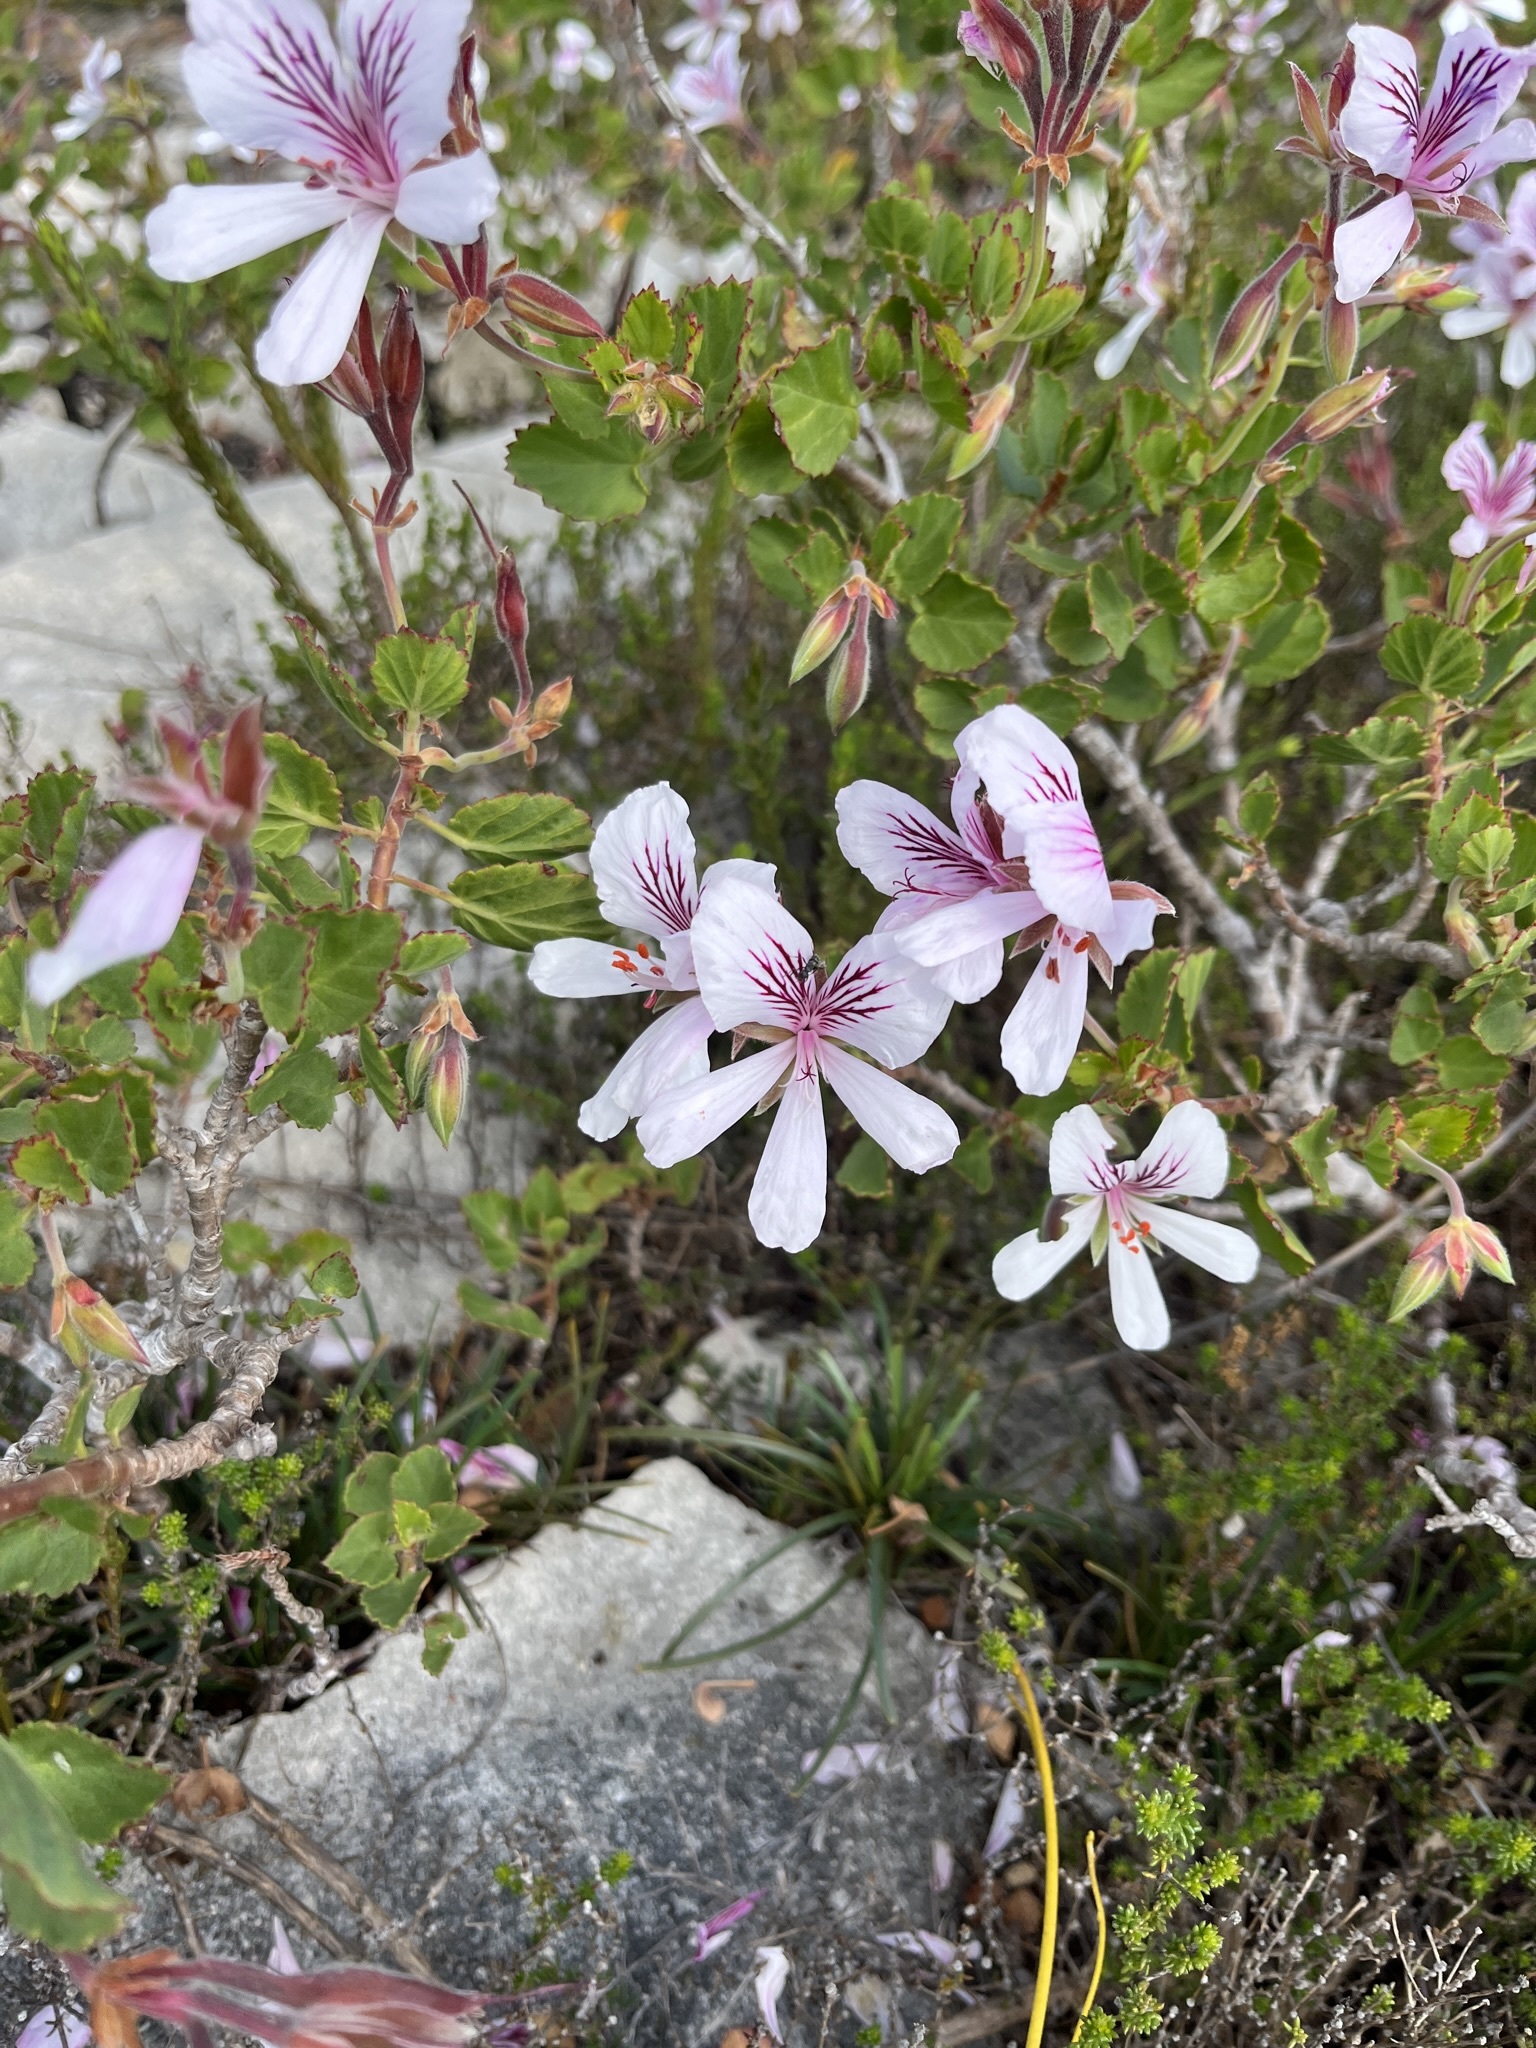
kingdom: Plantae
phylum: Tracheophyta
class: Magnoliopsida
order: Geraniales
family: Geraniaceae
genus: Pelargonium
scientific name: Pelargonium betulinum
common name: Birch-leaf pelargonium
